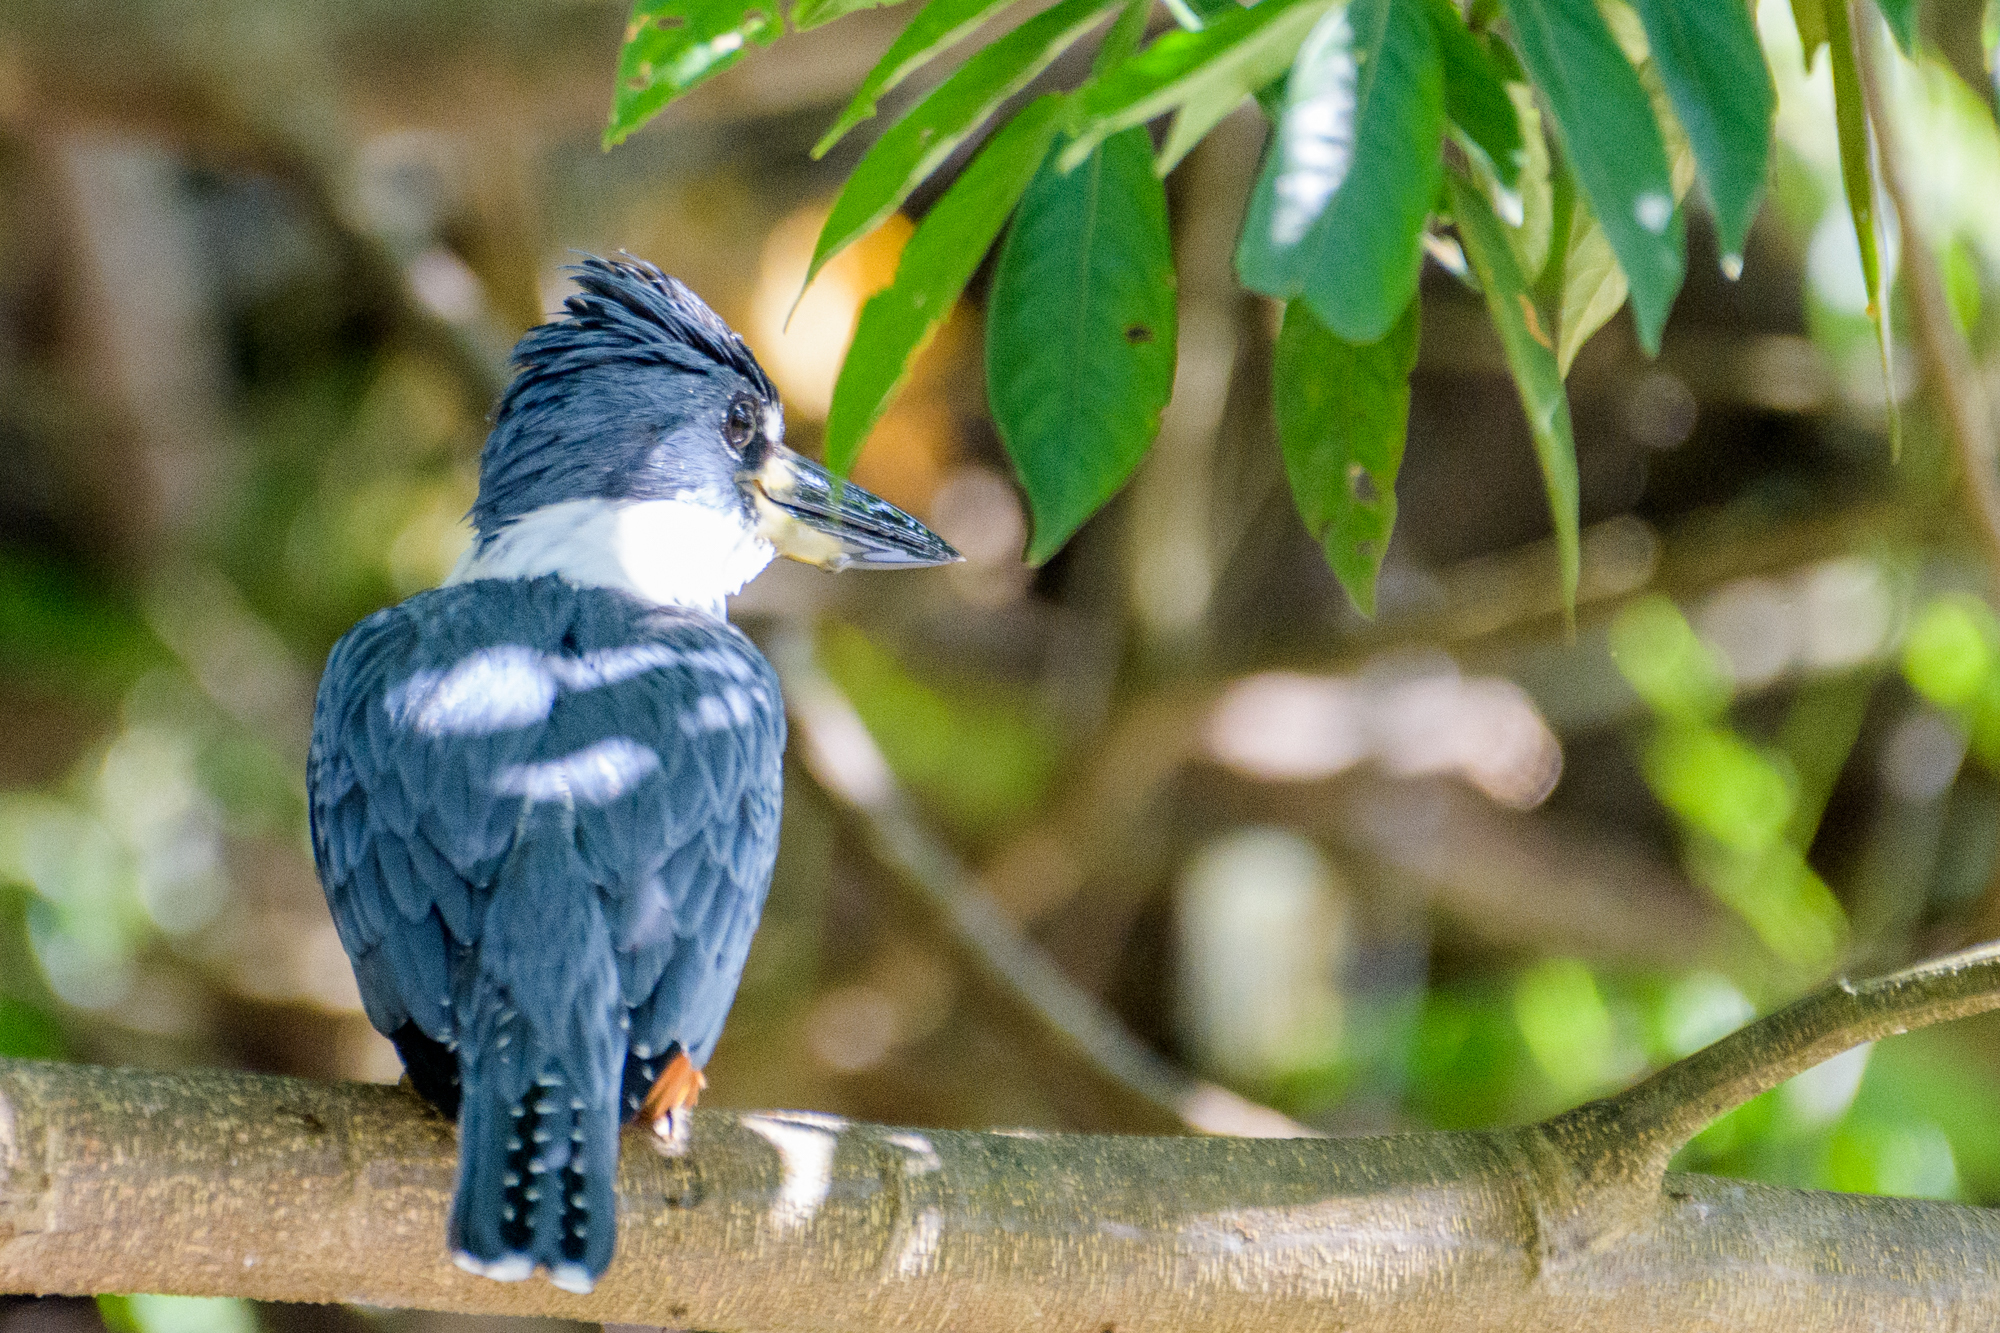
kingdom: Animalia
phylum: Chordata
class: Aves
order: Coraciiformes
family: Alcedinidae
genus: Megaceryle
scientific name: Megaceryle torquata
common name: Ringed kingfisher
